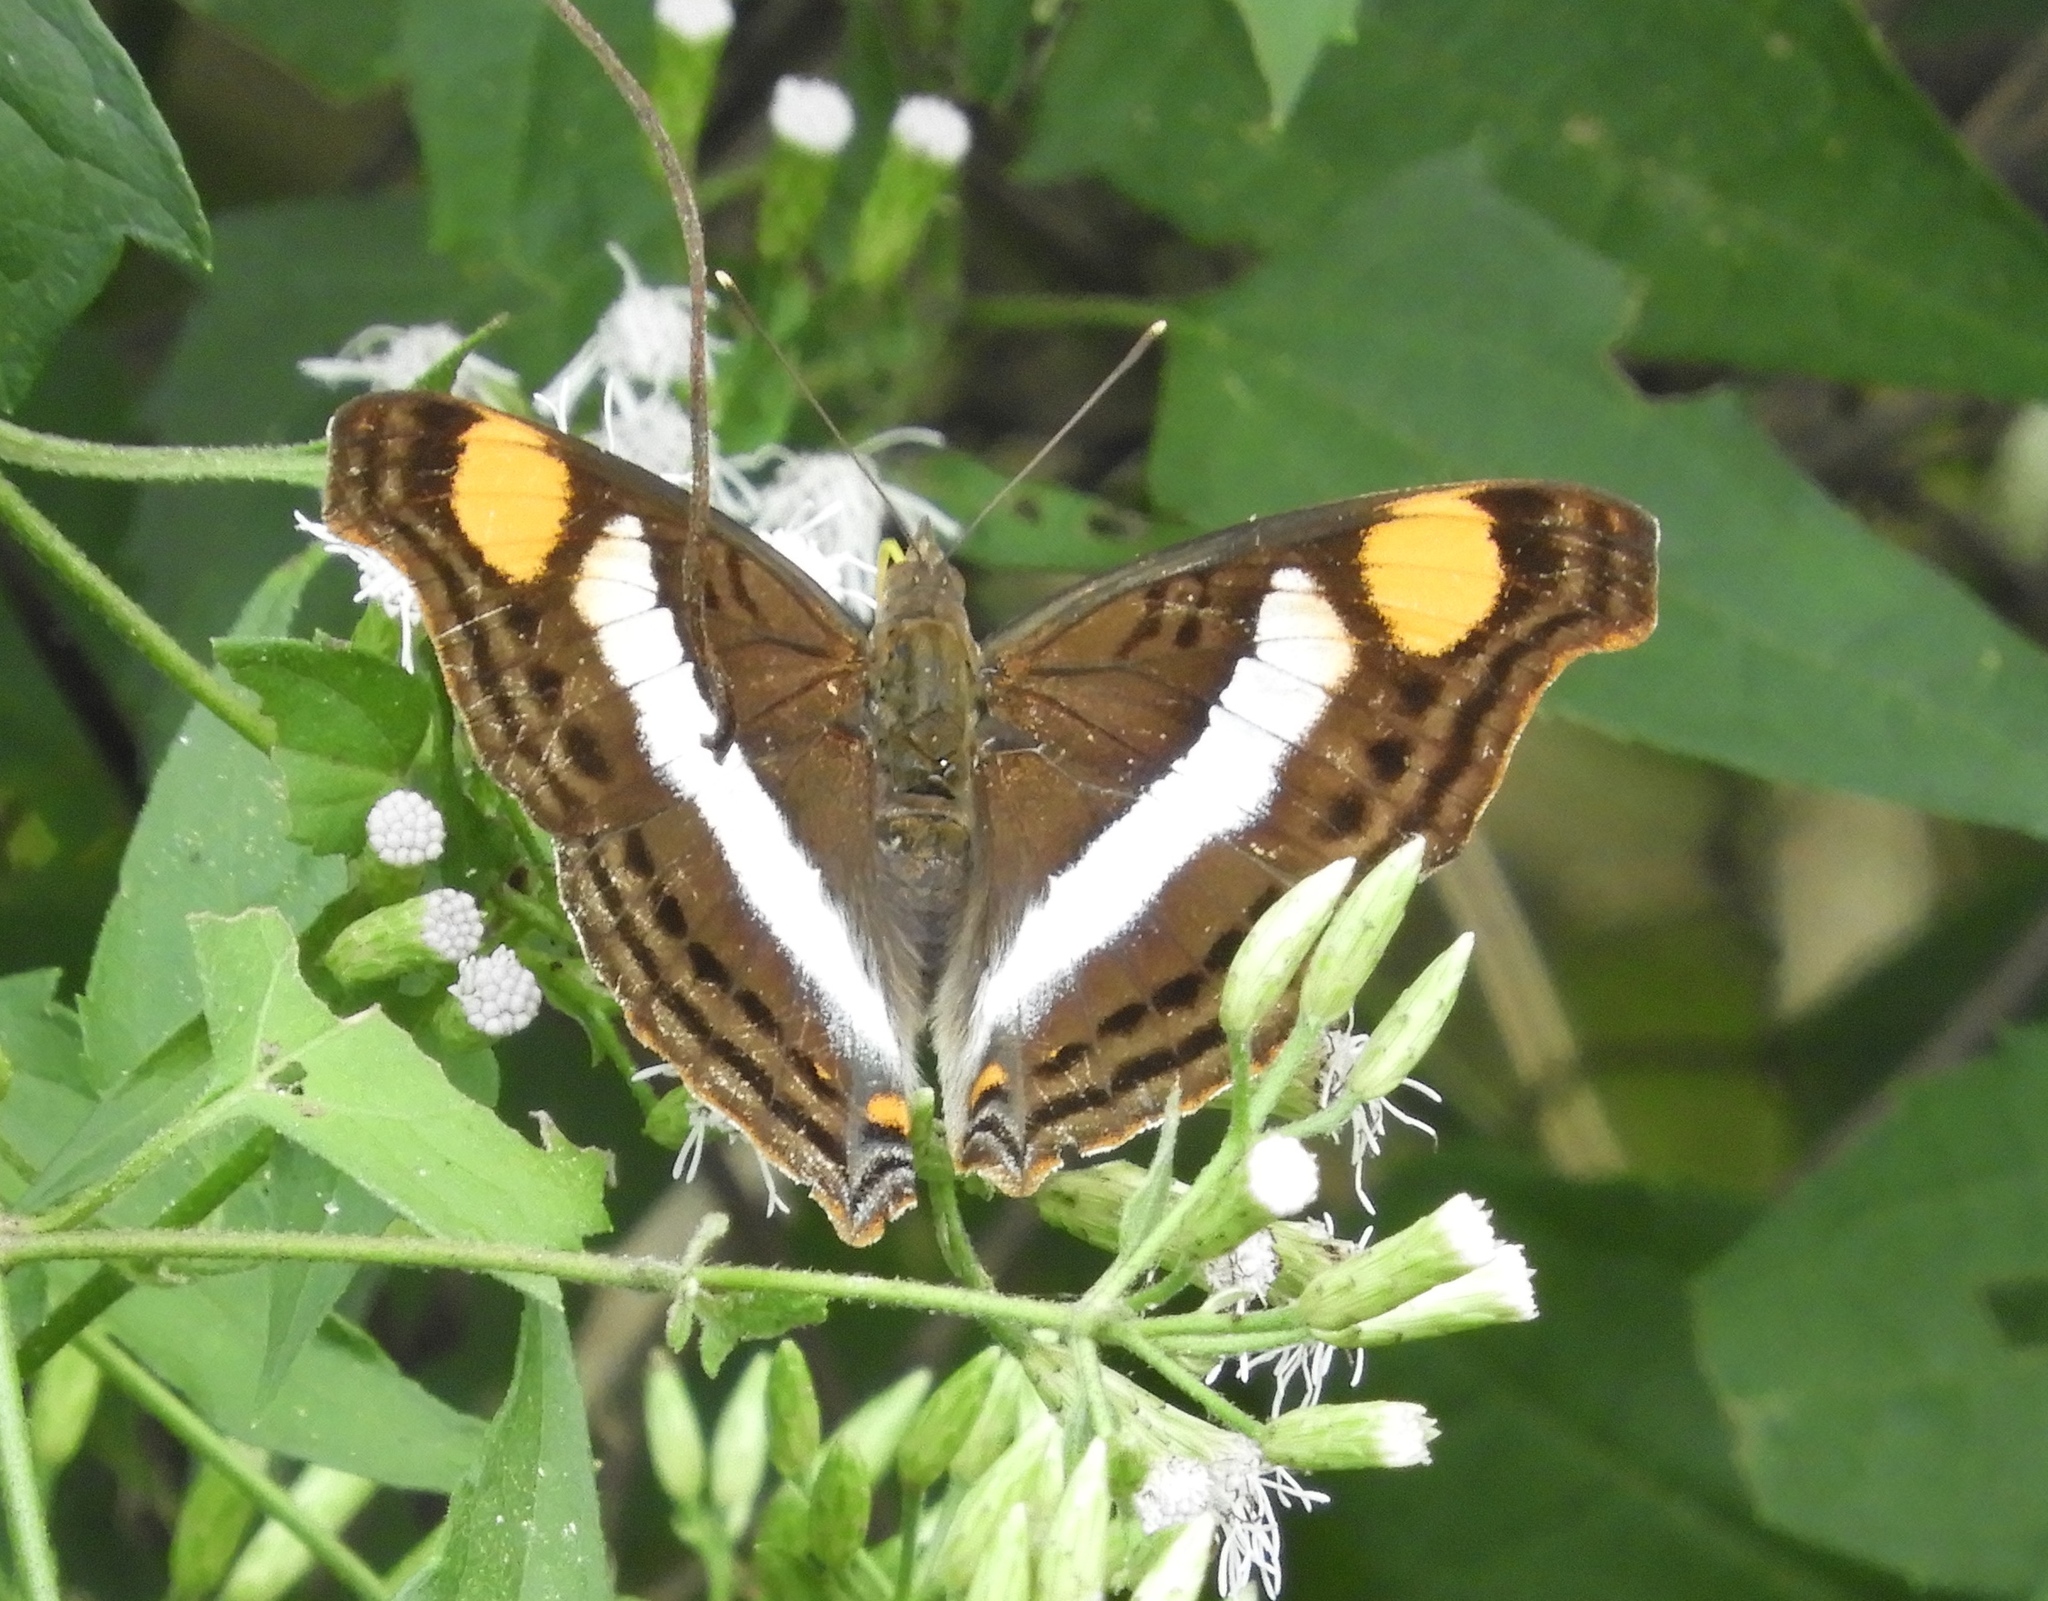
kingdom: Animalia
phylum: Arthropoda
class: Insecta
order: Lepidoptera
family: Nymphalidae
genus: Doxocopa
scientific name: Doxocopa laure
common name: Silver emperor
